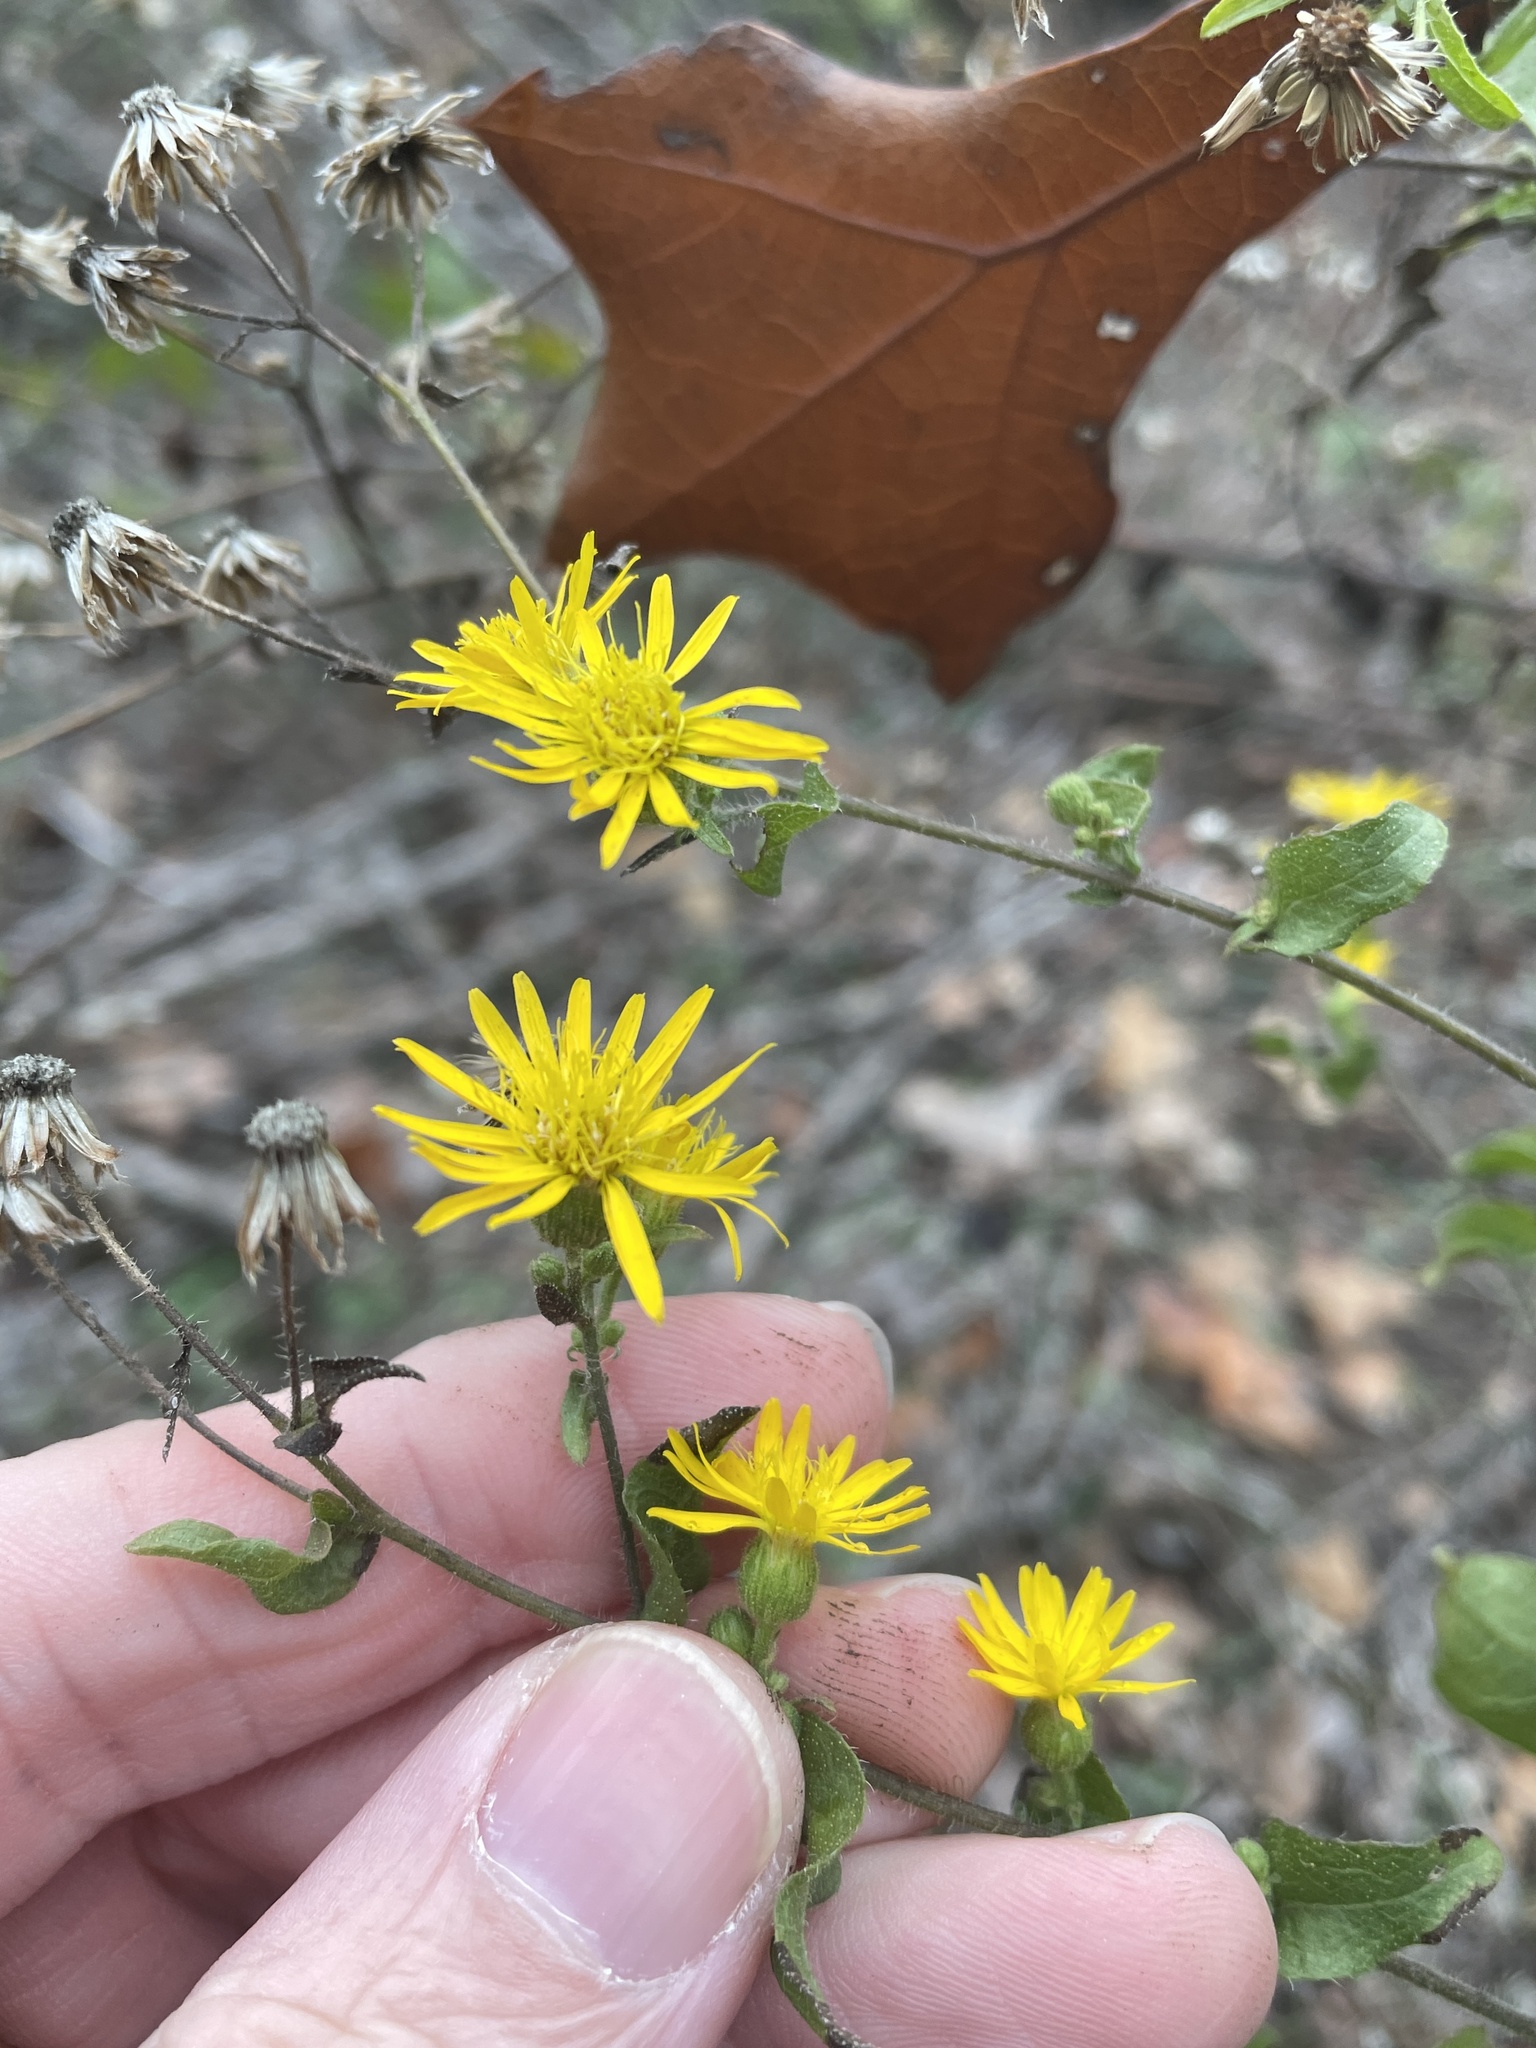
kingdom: Plantae
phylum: Tracheophyta
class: Magnoliopsida
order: Asterales
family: Asteraceae
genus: Heterotheca
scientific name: Heterotheca subaxillaris
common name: Camphorweed
